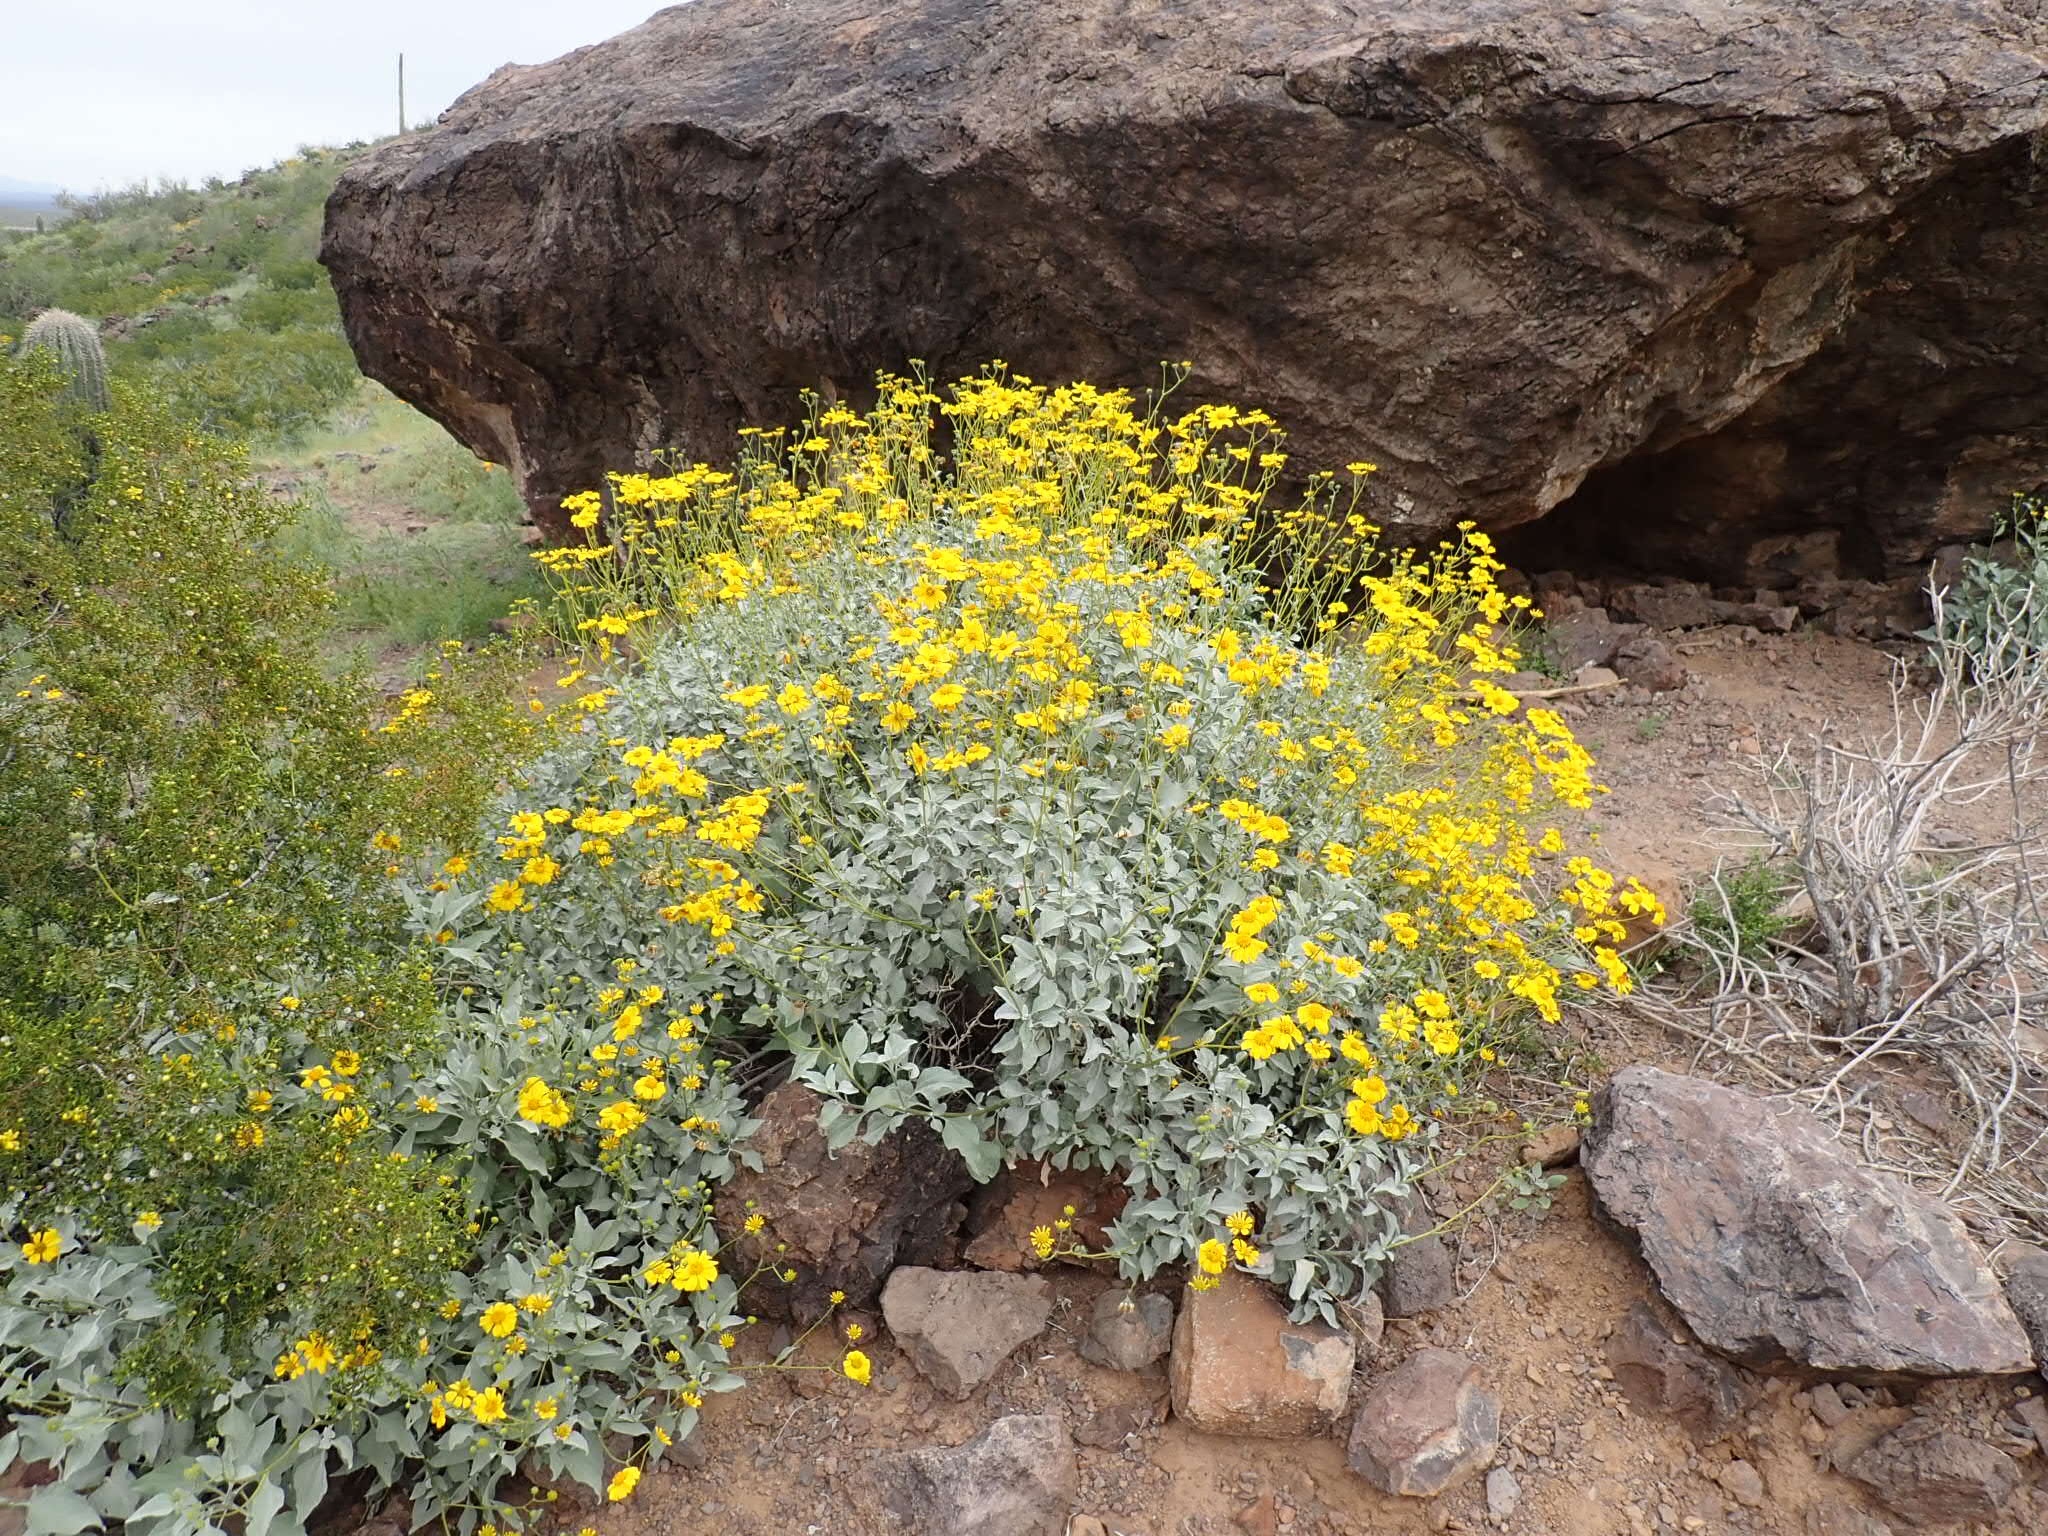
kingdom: Plantae
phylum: Tracheophyta
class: Magnoliopsida
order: Asterales
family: Asteraceae
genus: Encelia
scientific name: Encelia farinosa
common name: Brittlebush
